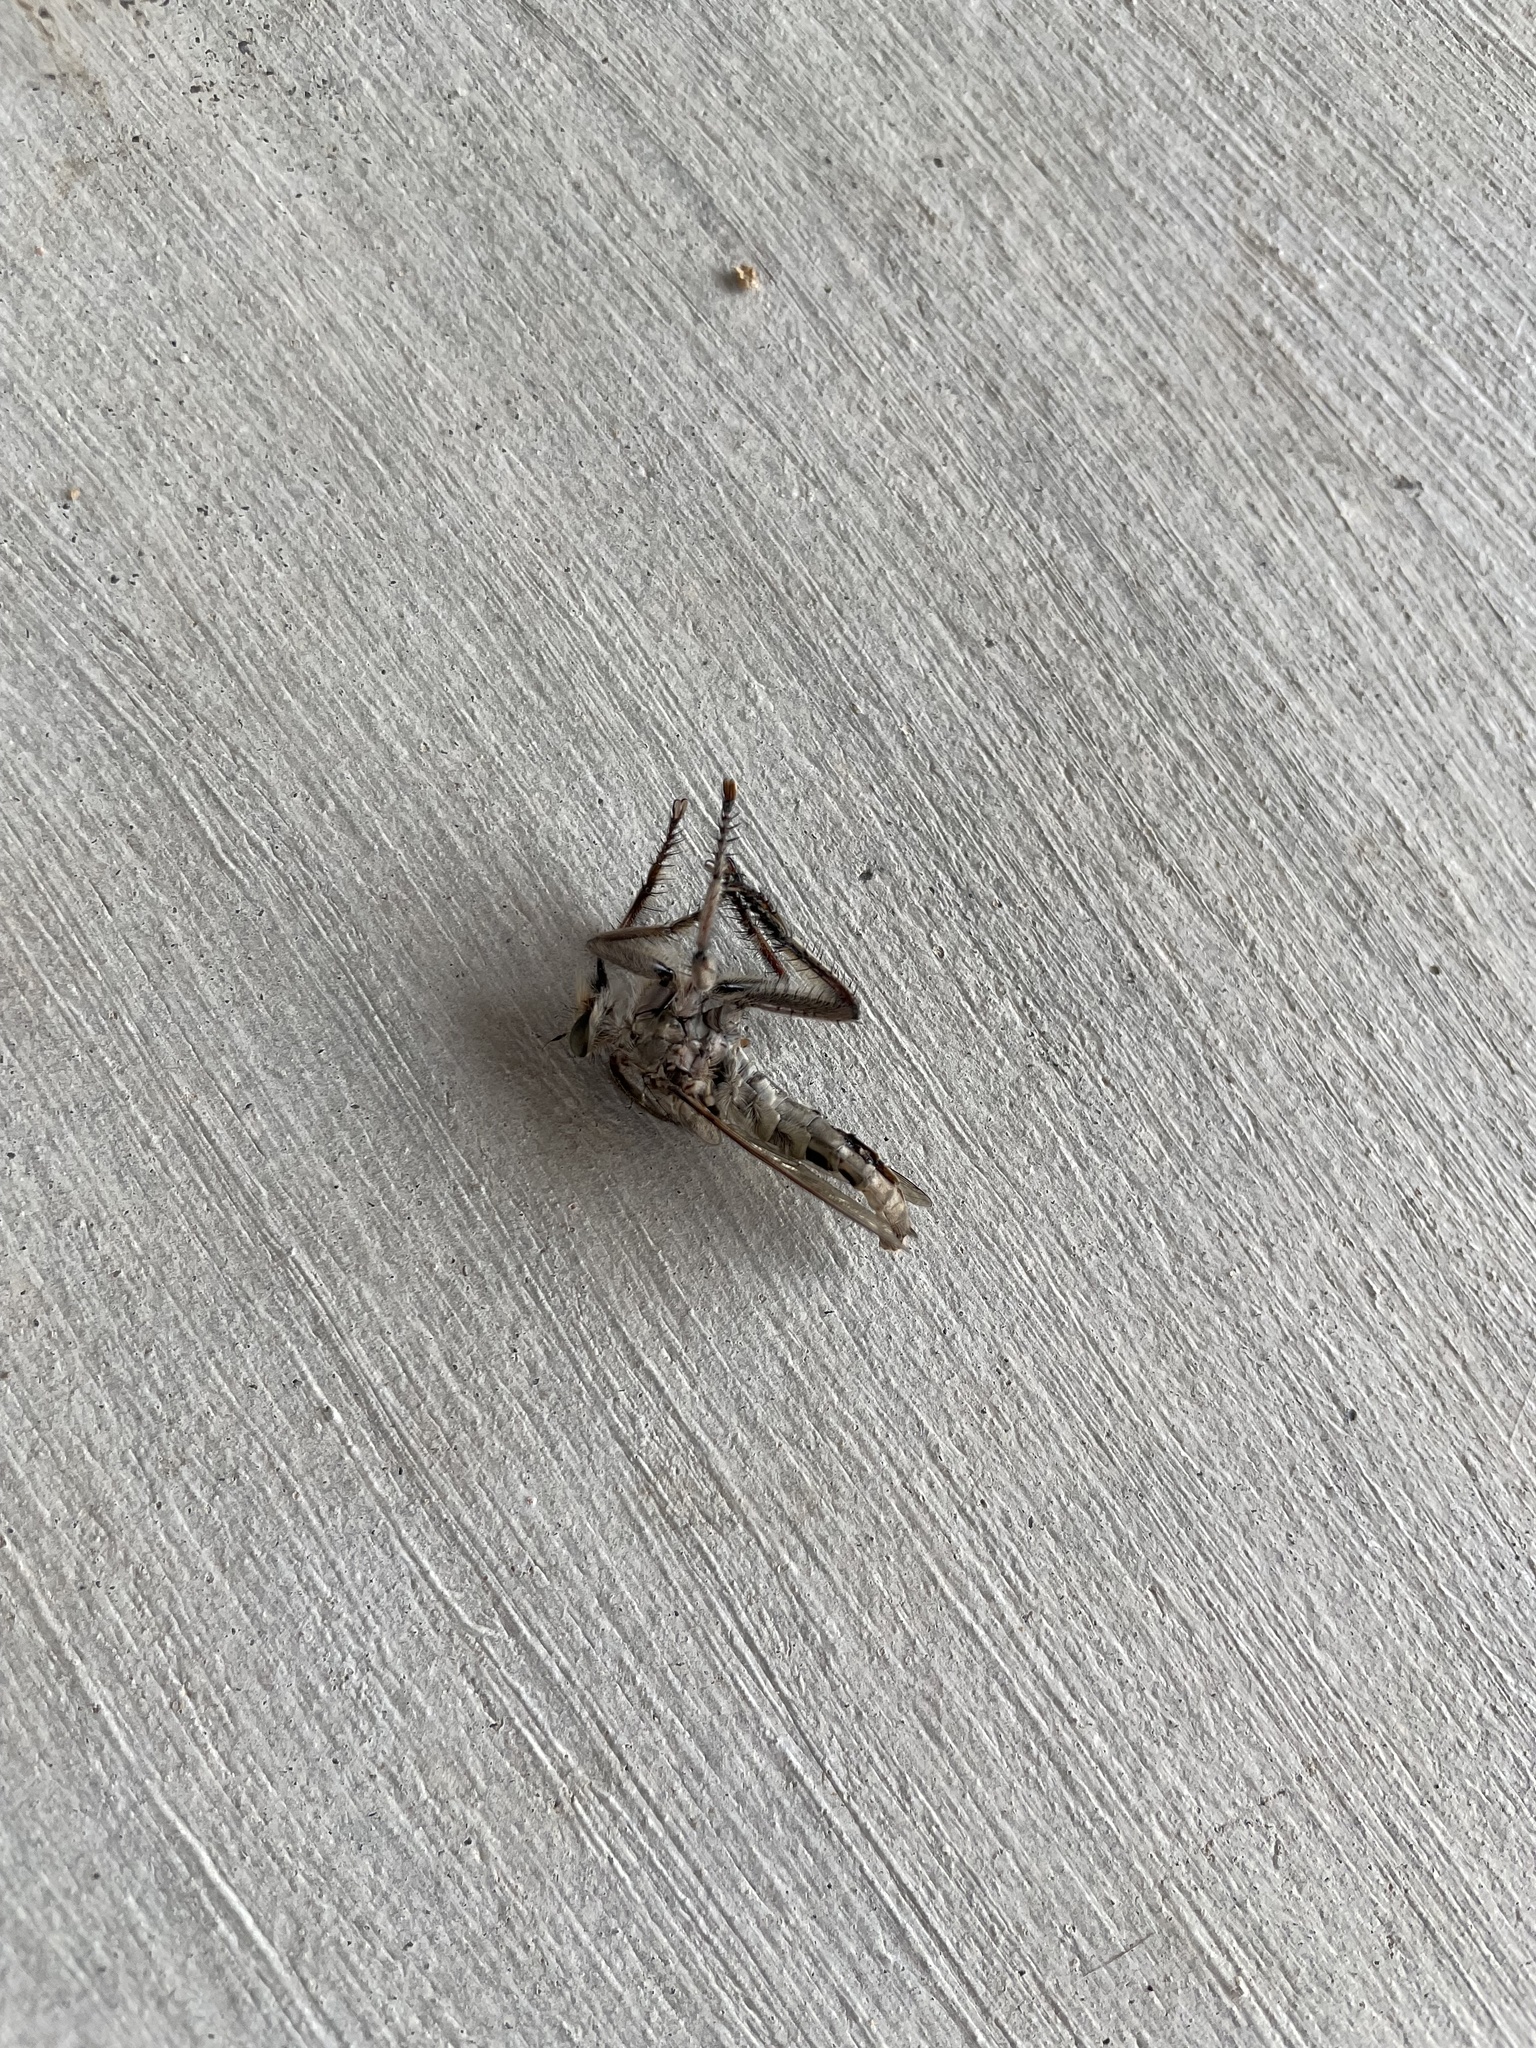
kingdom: Animalia
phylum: Arthropoda
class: Insecta
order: Diptera
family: Asilidae
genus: Triorla
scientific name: Triorla interrupta
